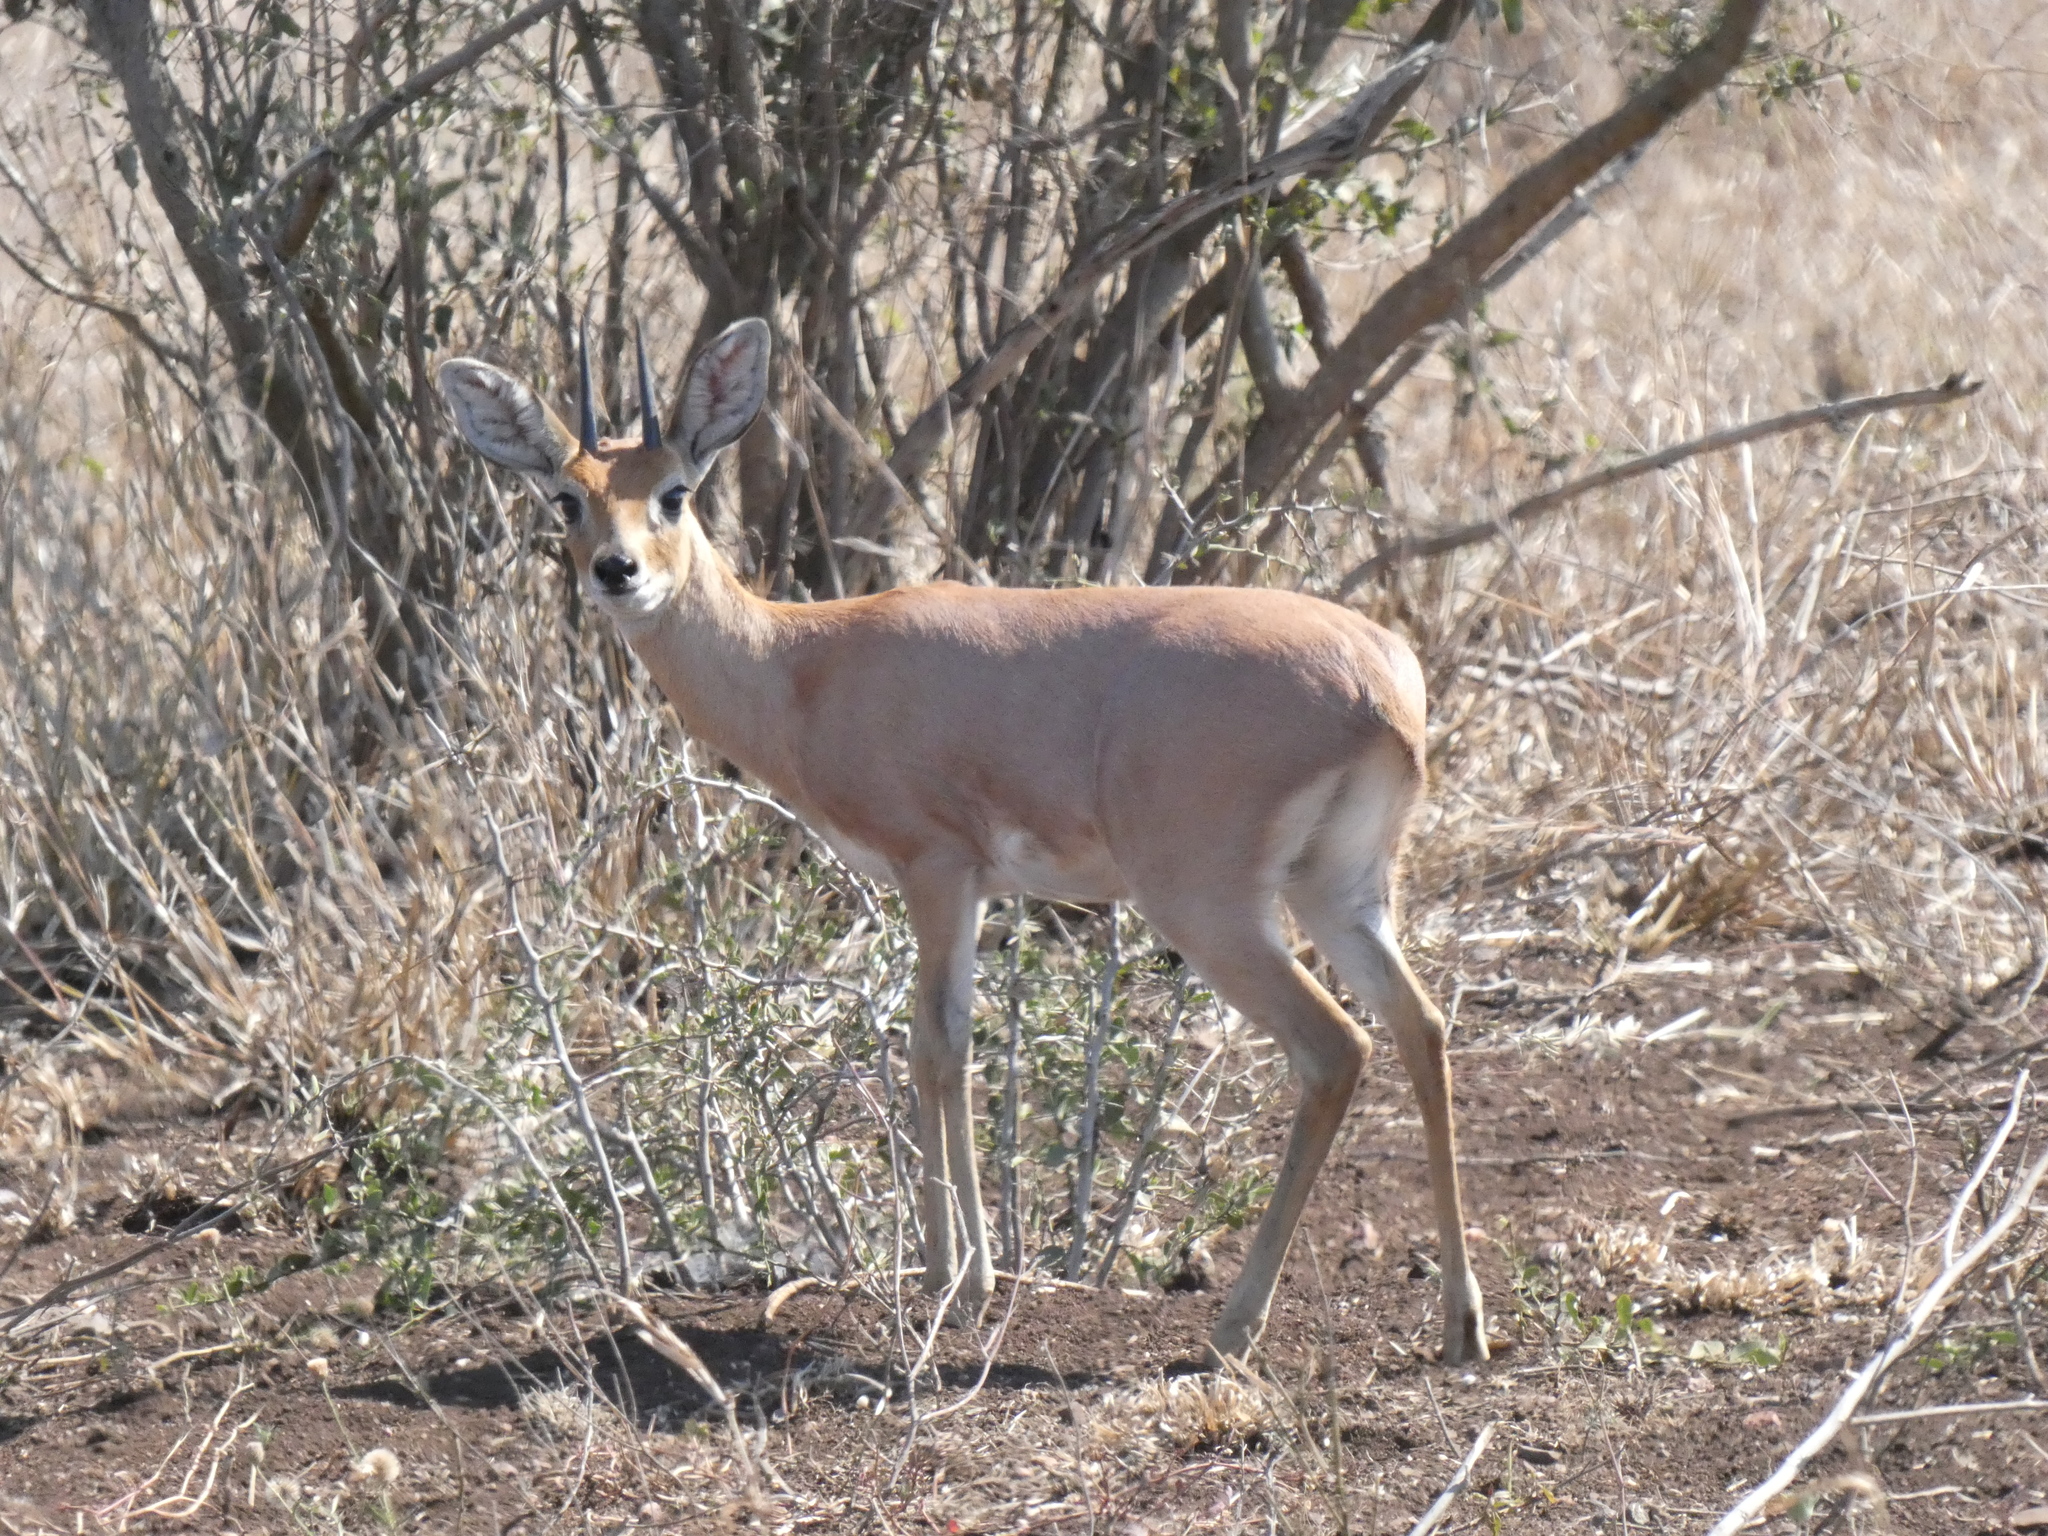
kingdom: Animalia
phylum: Chordata
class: Mammalia
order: Artiodactyla
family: Bovidae
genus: Raphicerus
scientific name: Raphicerus campestris
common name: Steenbok
